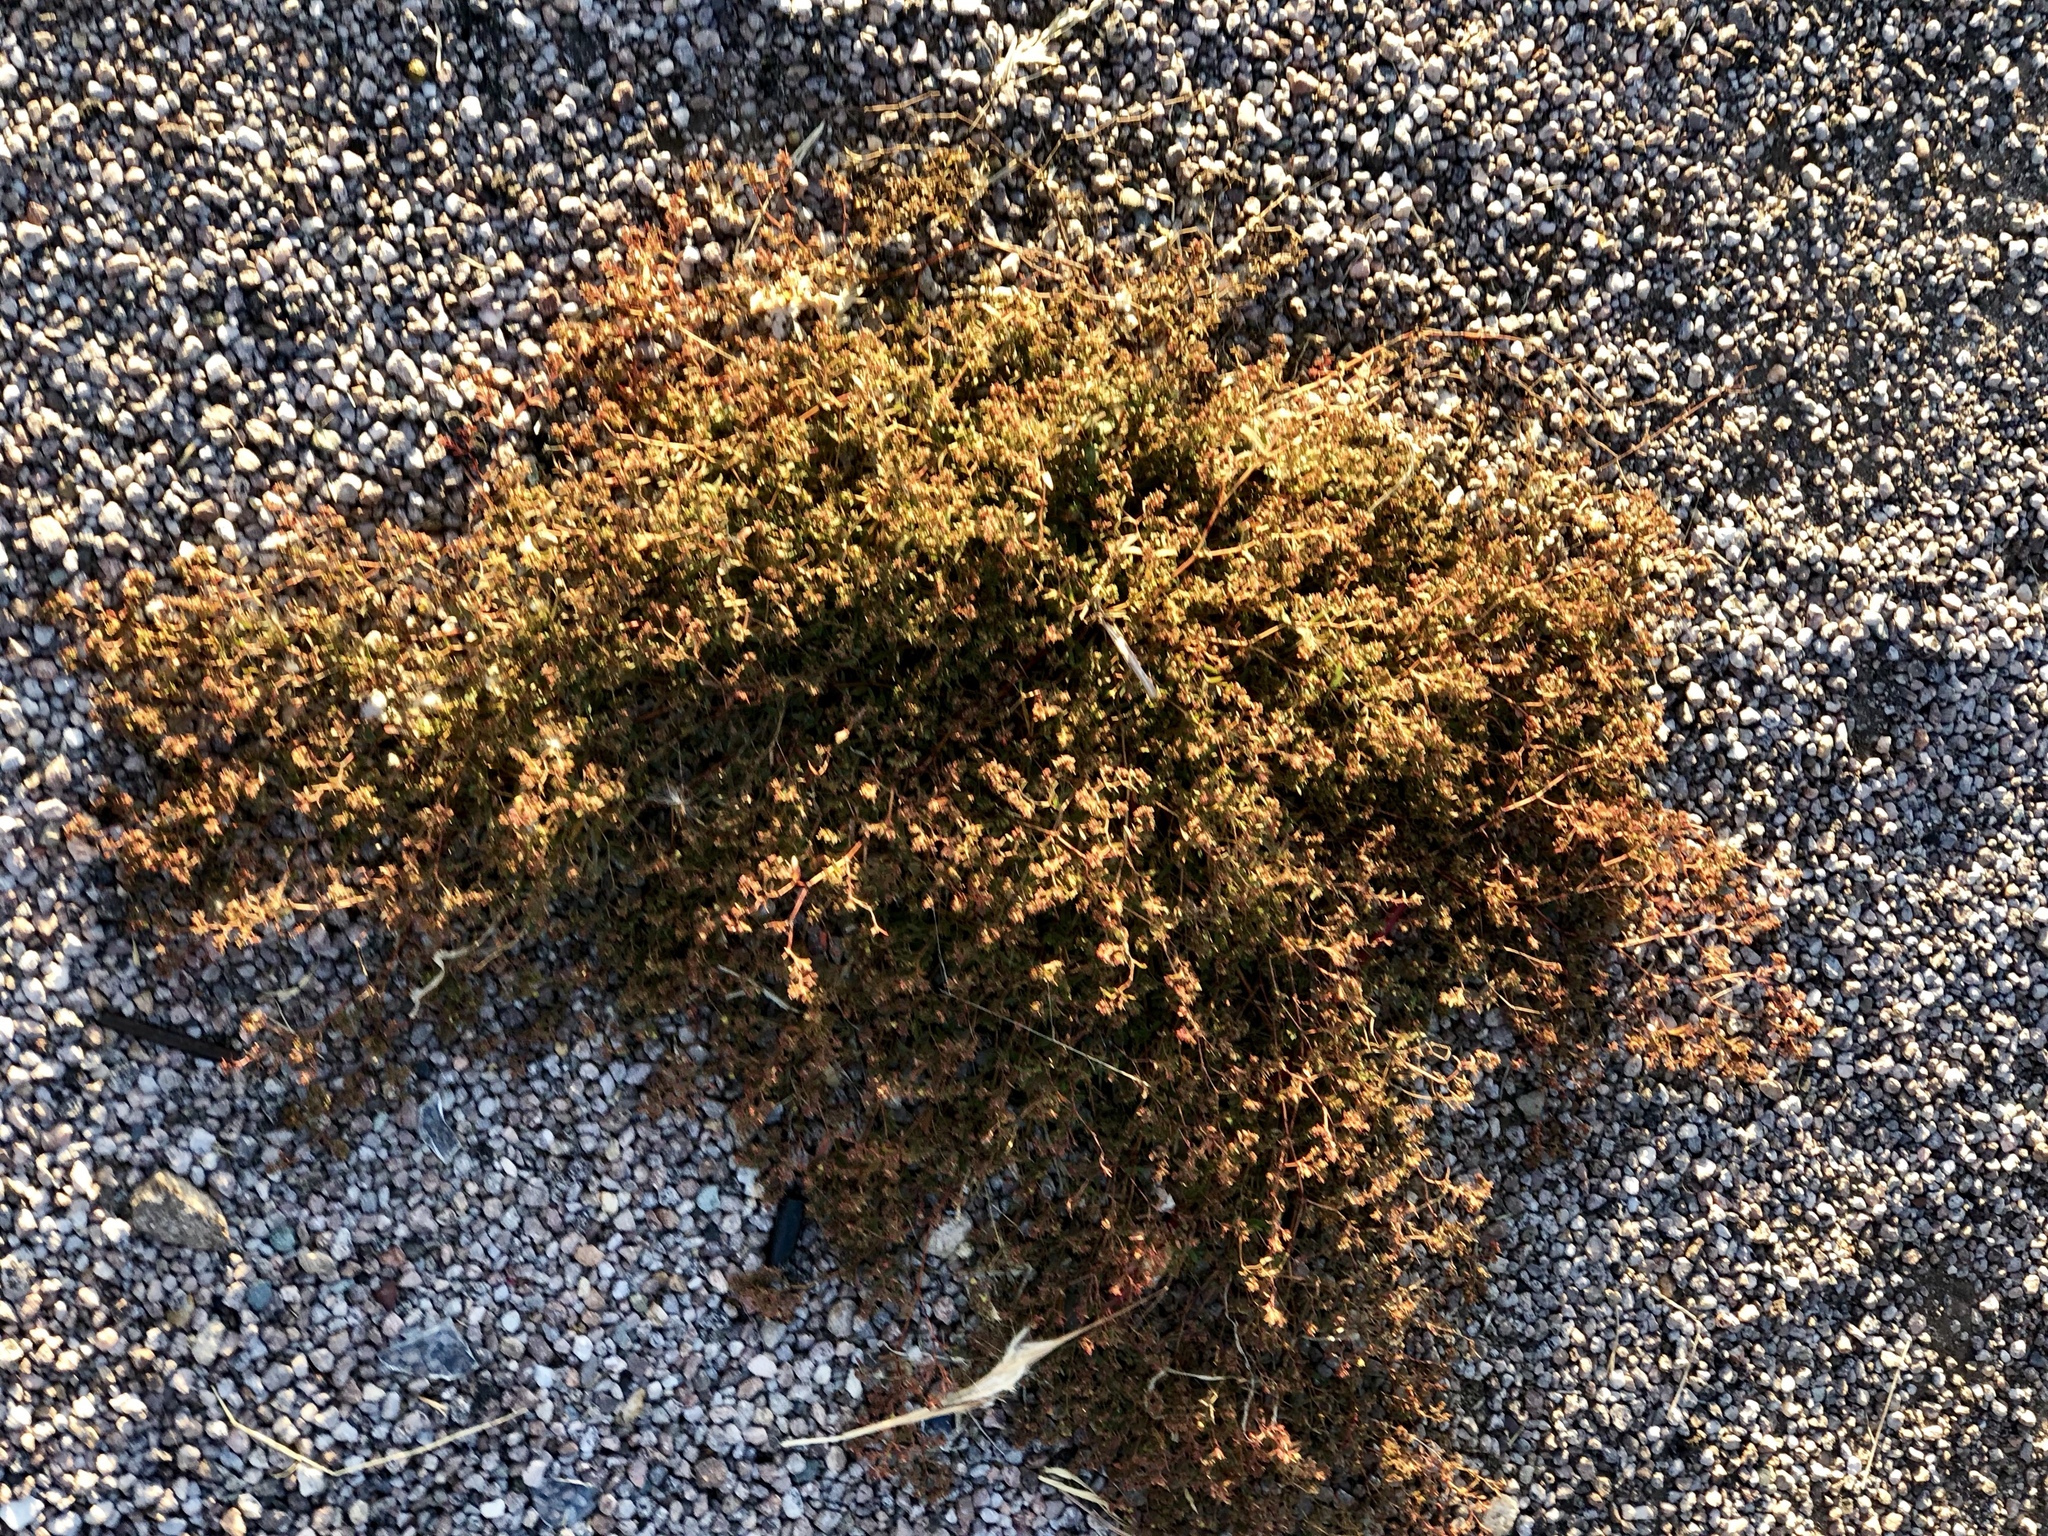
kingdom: Plantae
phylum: Tracheophyta
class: Magnoliopsida
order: Malpighiales
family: Euphorbiaceae
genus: Euphorbia
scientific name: Euphorbia hyssopifolia
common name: Hyssopleaf sandmat
